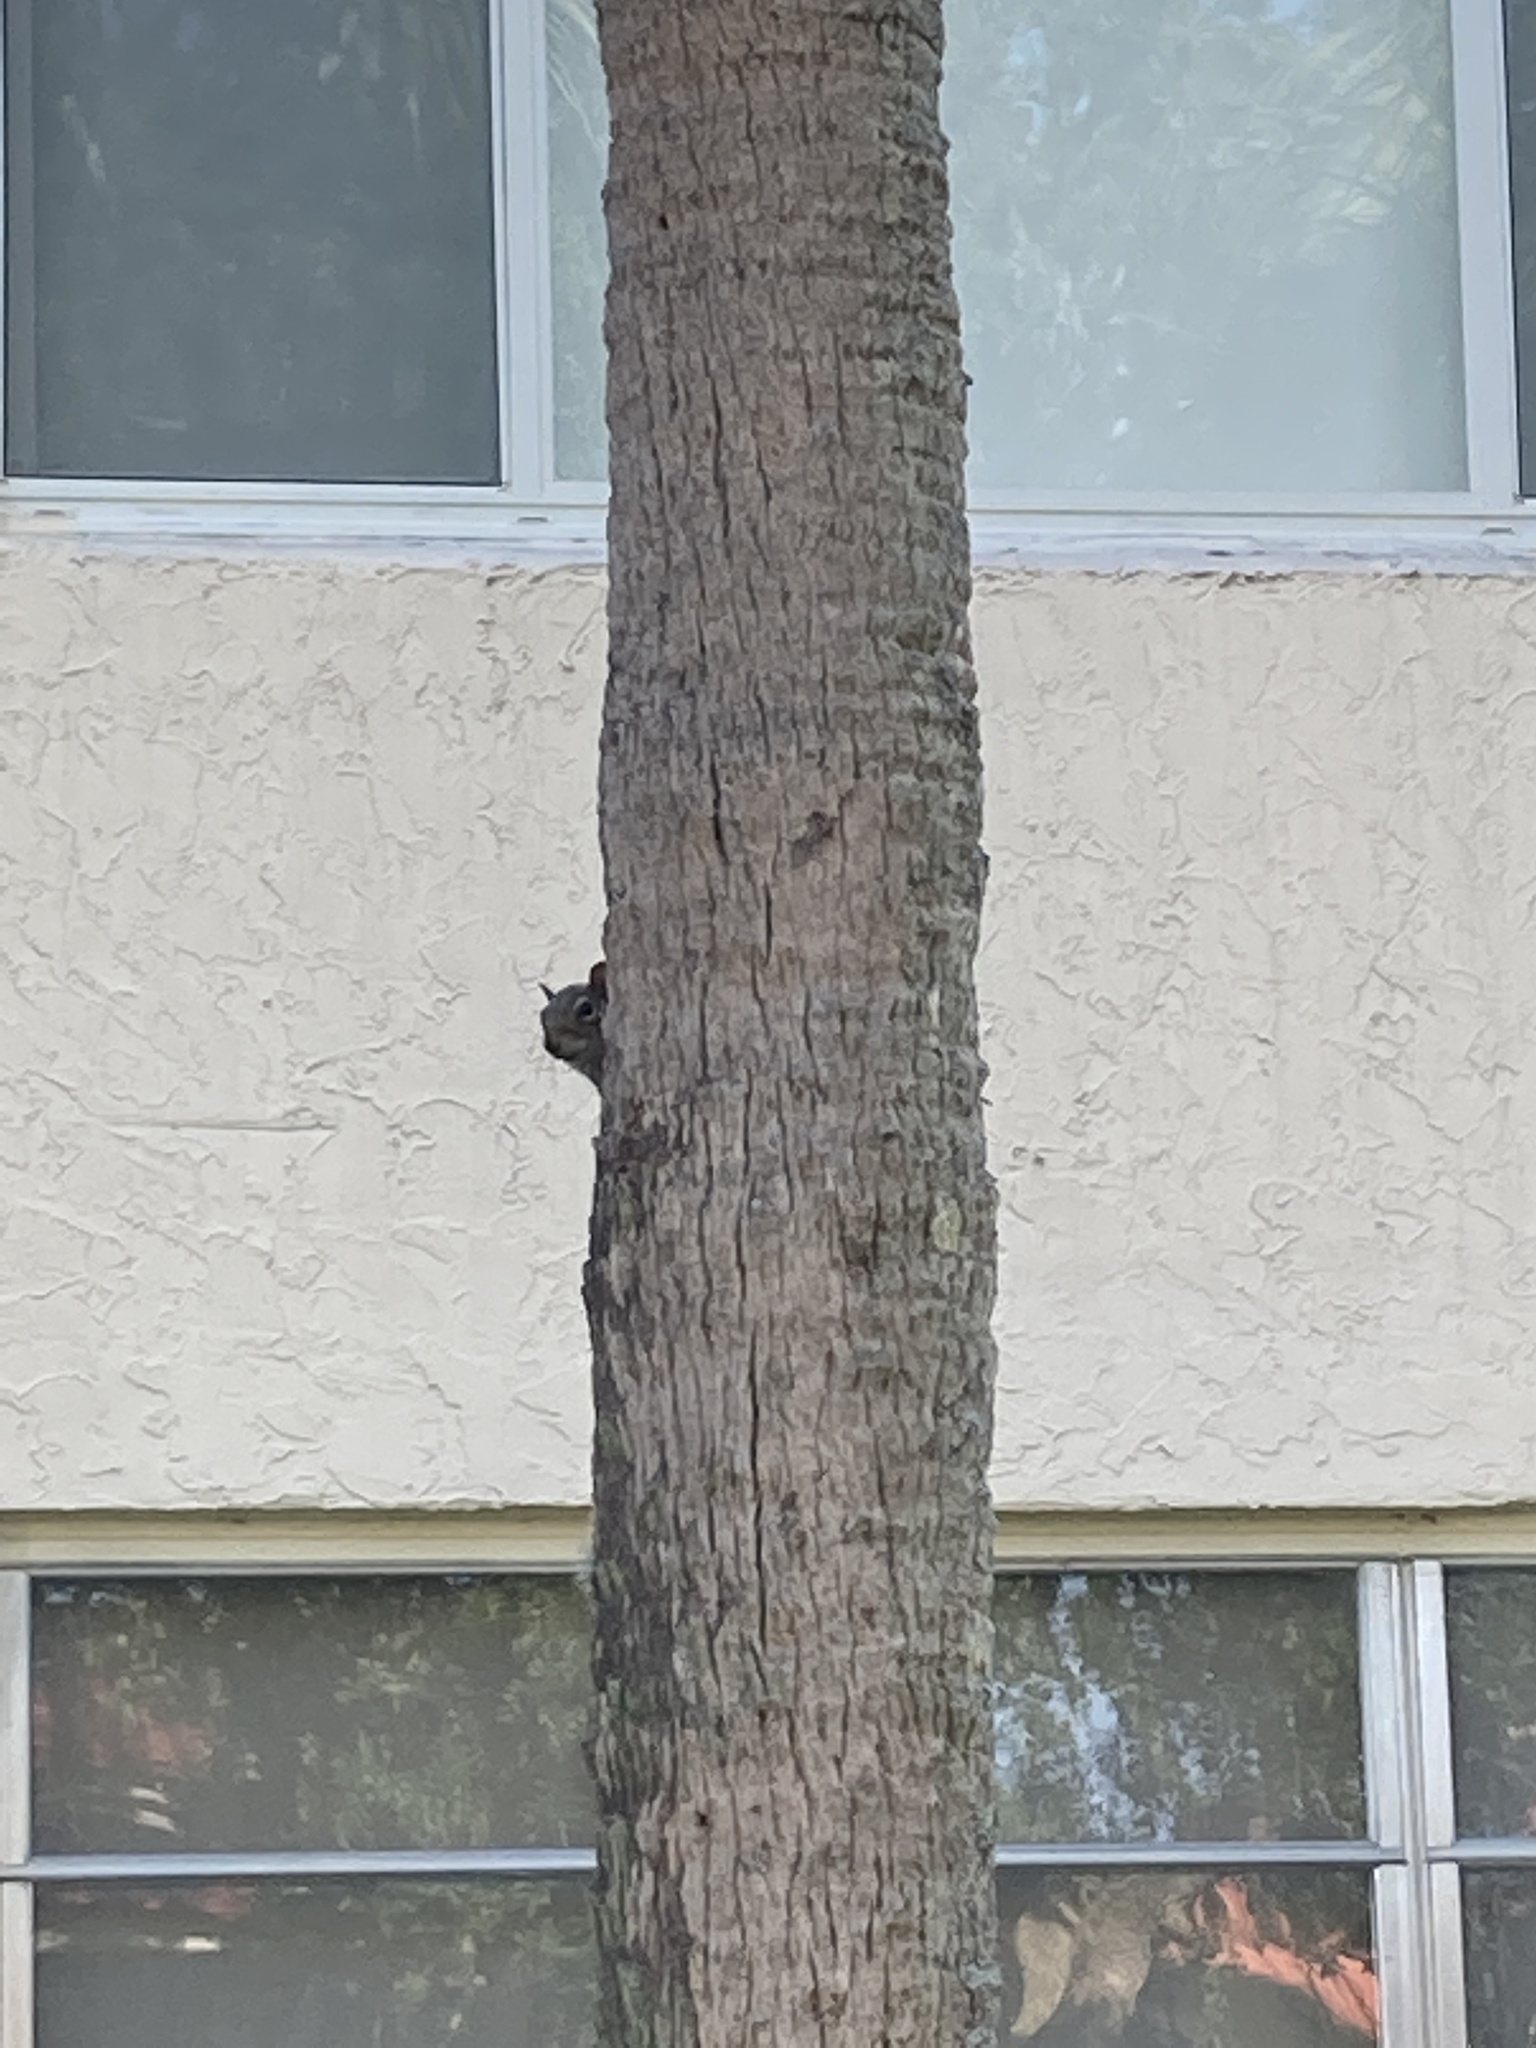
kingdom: Animalia
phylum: Chordata
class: Mammalia
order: Rodentia
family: Sciuridae
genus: Sciurus
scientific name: Sciurus carolinensis
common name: Eastern gray squirrel
